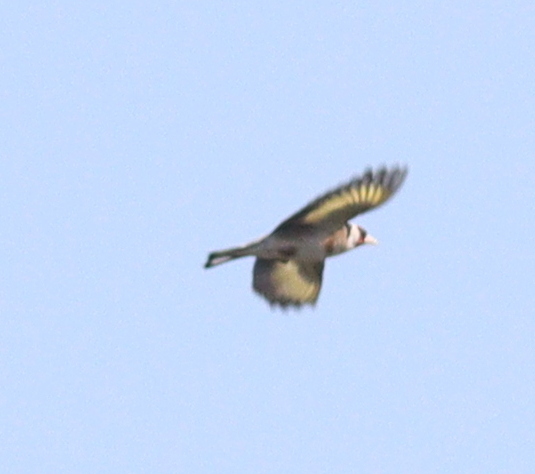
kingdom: Animalia
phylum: Chordata
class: Aves
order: Passeriformes
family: Fringillidae
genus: Carduelis
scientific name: Carduelis carduelis
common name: European goldfinch
